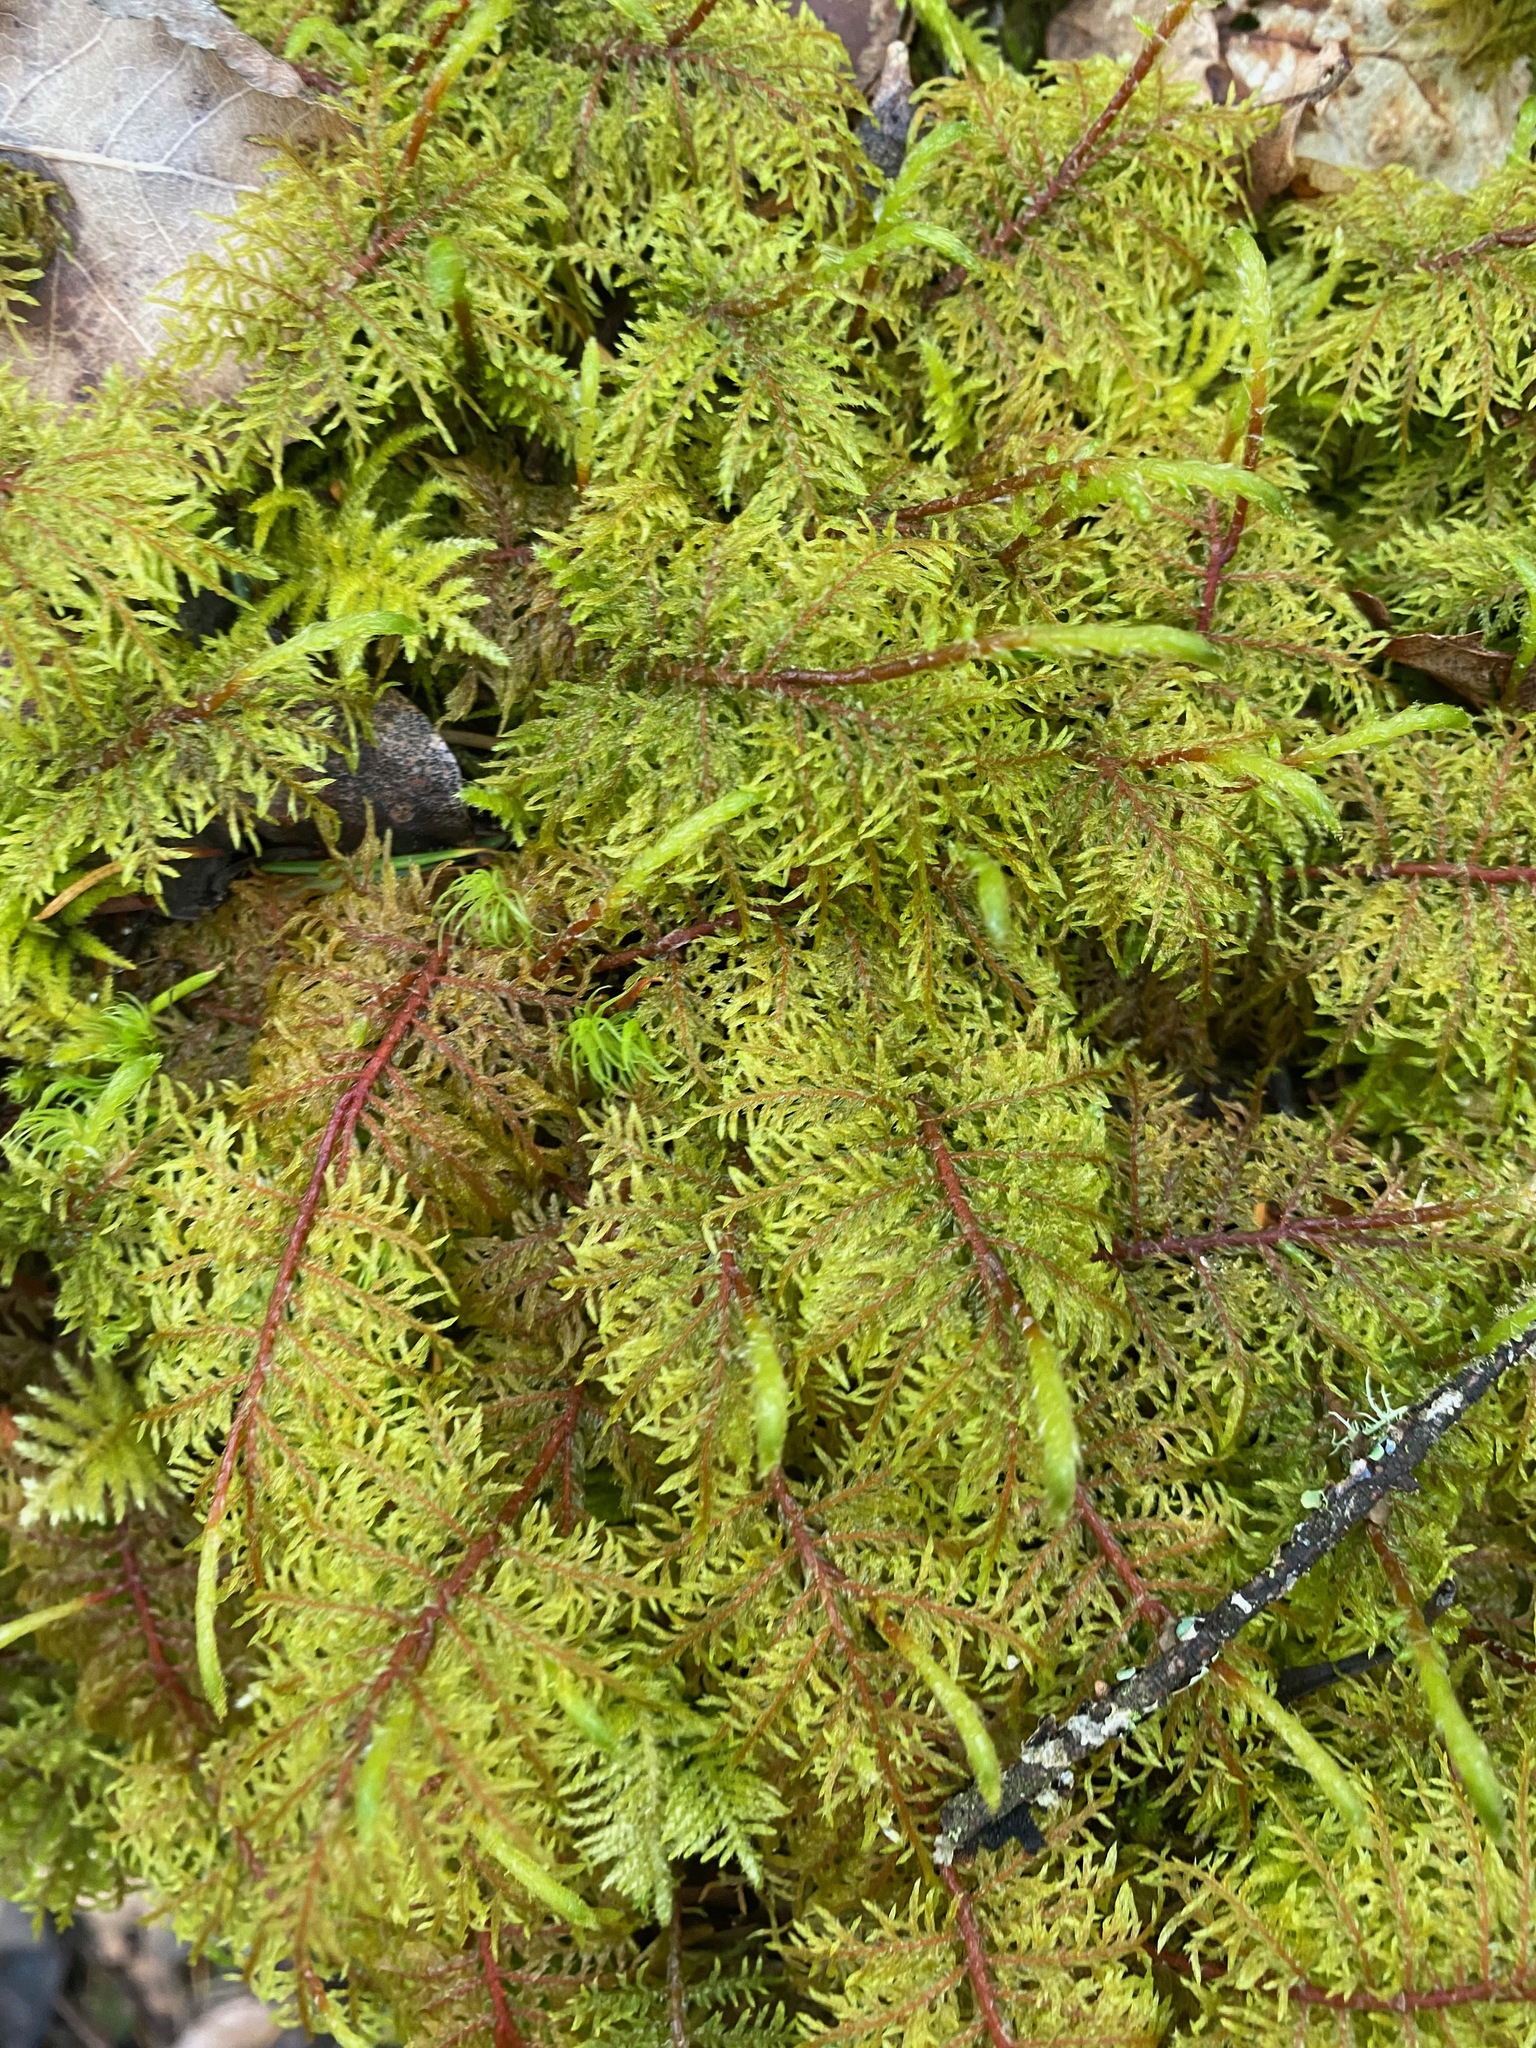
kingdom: Plantae
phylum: Bryophyta
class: Bryopsida
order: Hypnales
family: Hylocomiaceae
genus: Hylocomium
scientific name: Hylocomium splendens
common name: Stairstep moss
